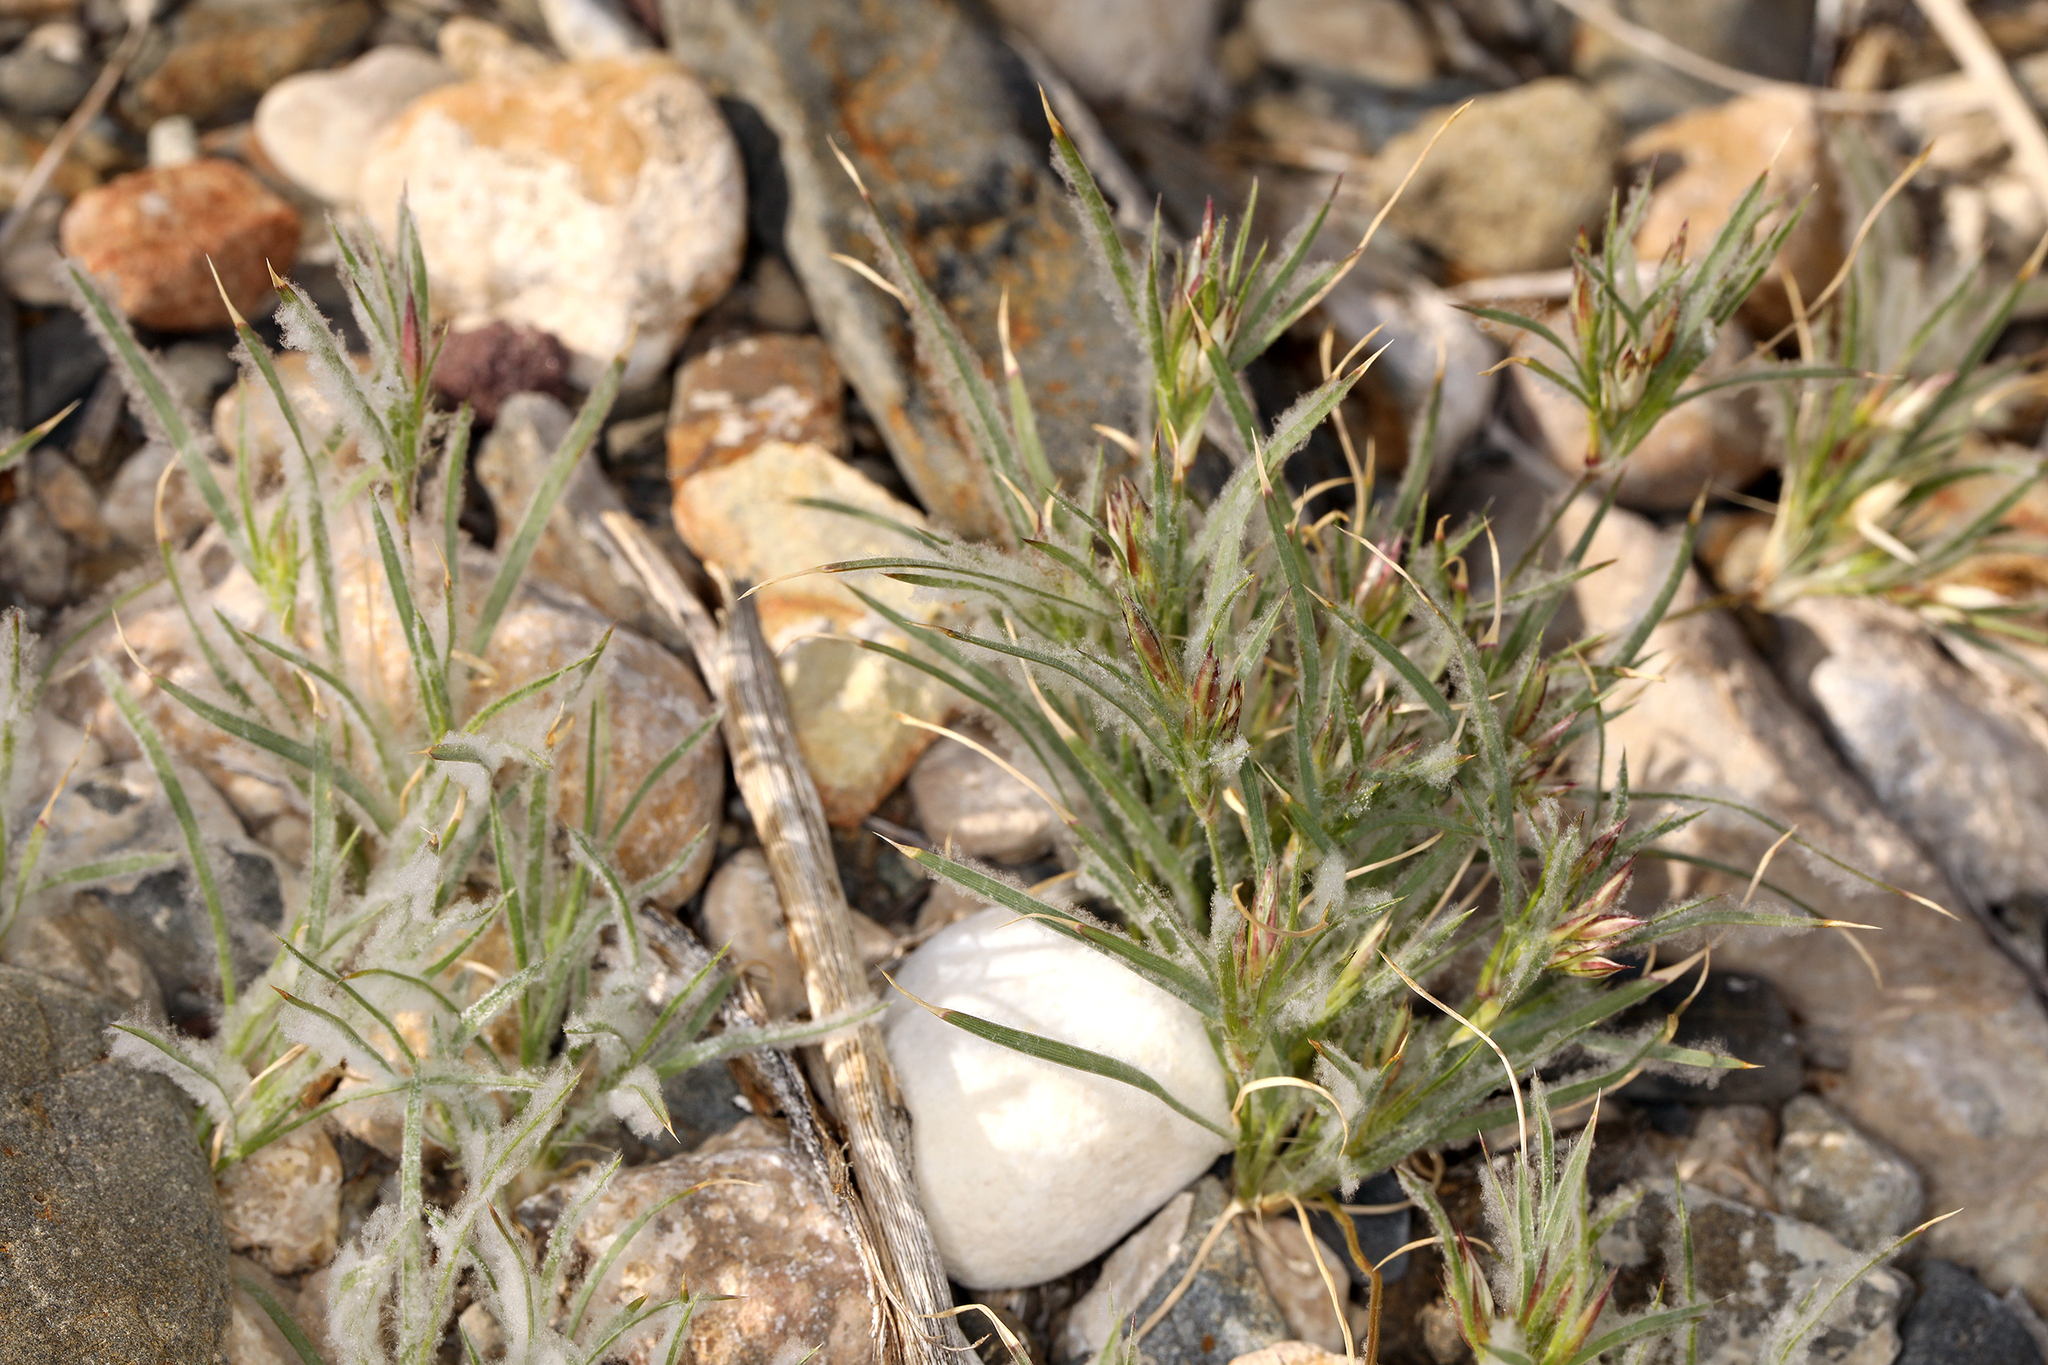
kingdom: Plantae
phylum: Tracheophyta
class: Liliopsida
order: Poales
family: Poaceae
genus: Dasyochloa
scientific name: Dasyochloa pulchella
